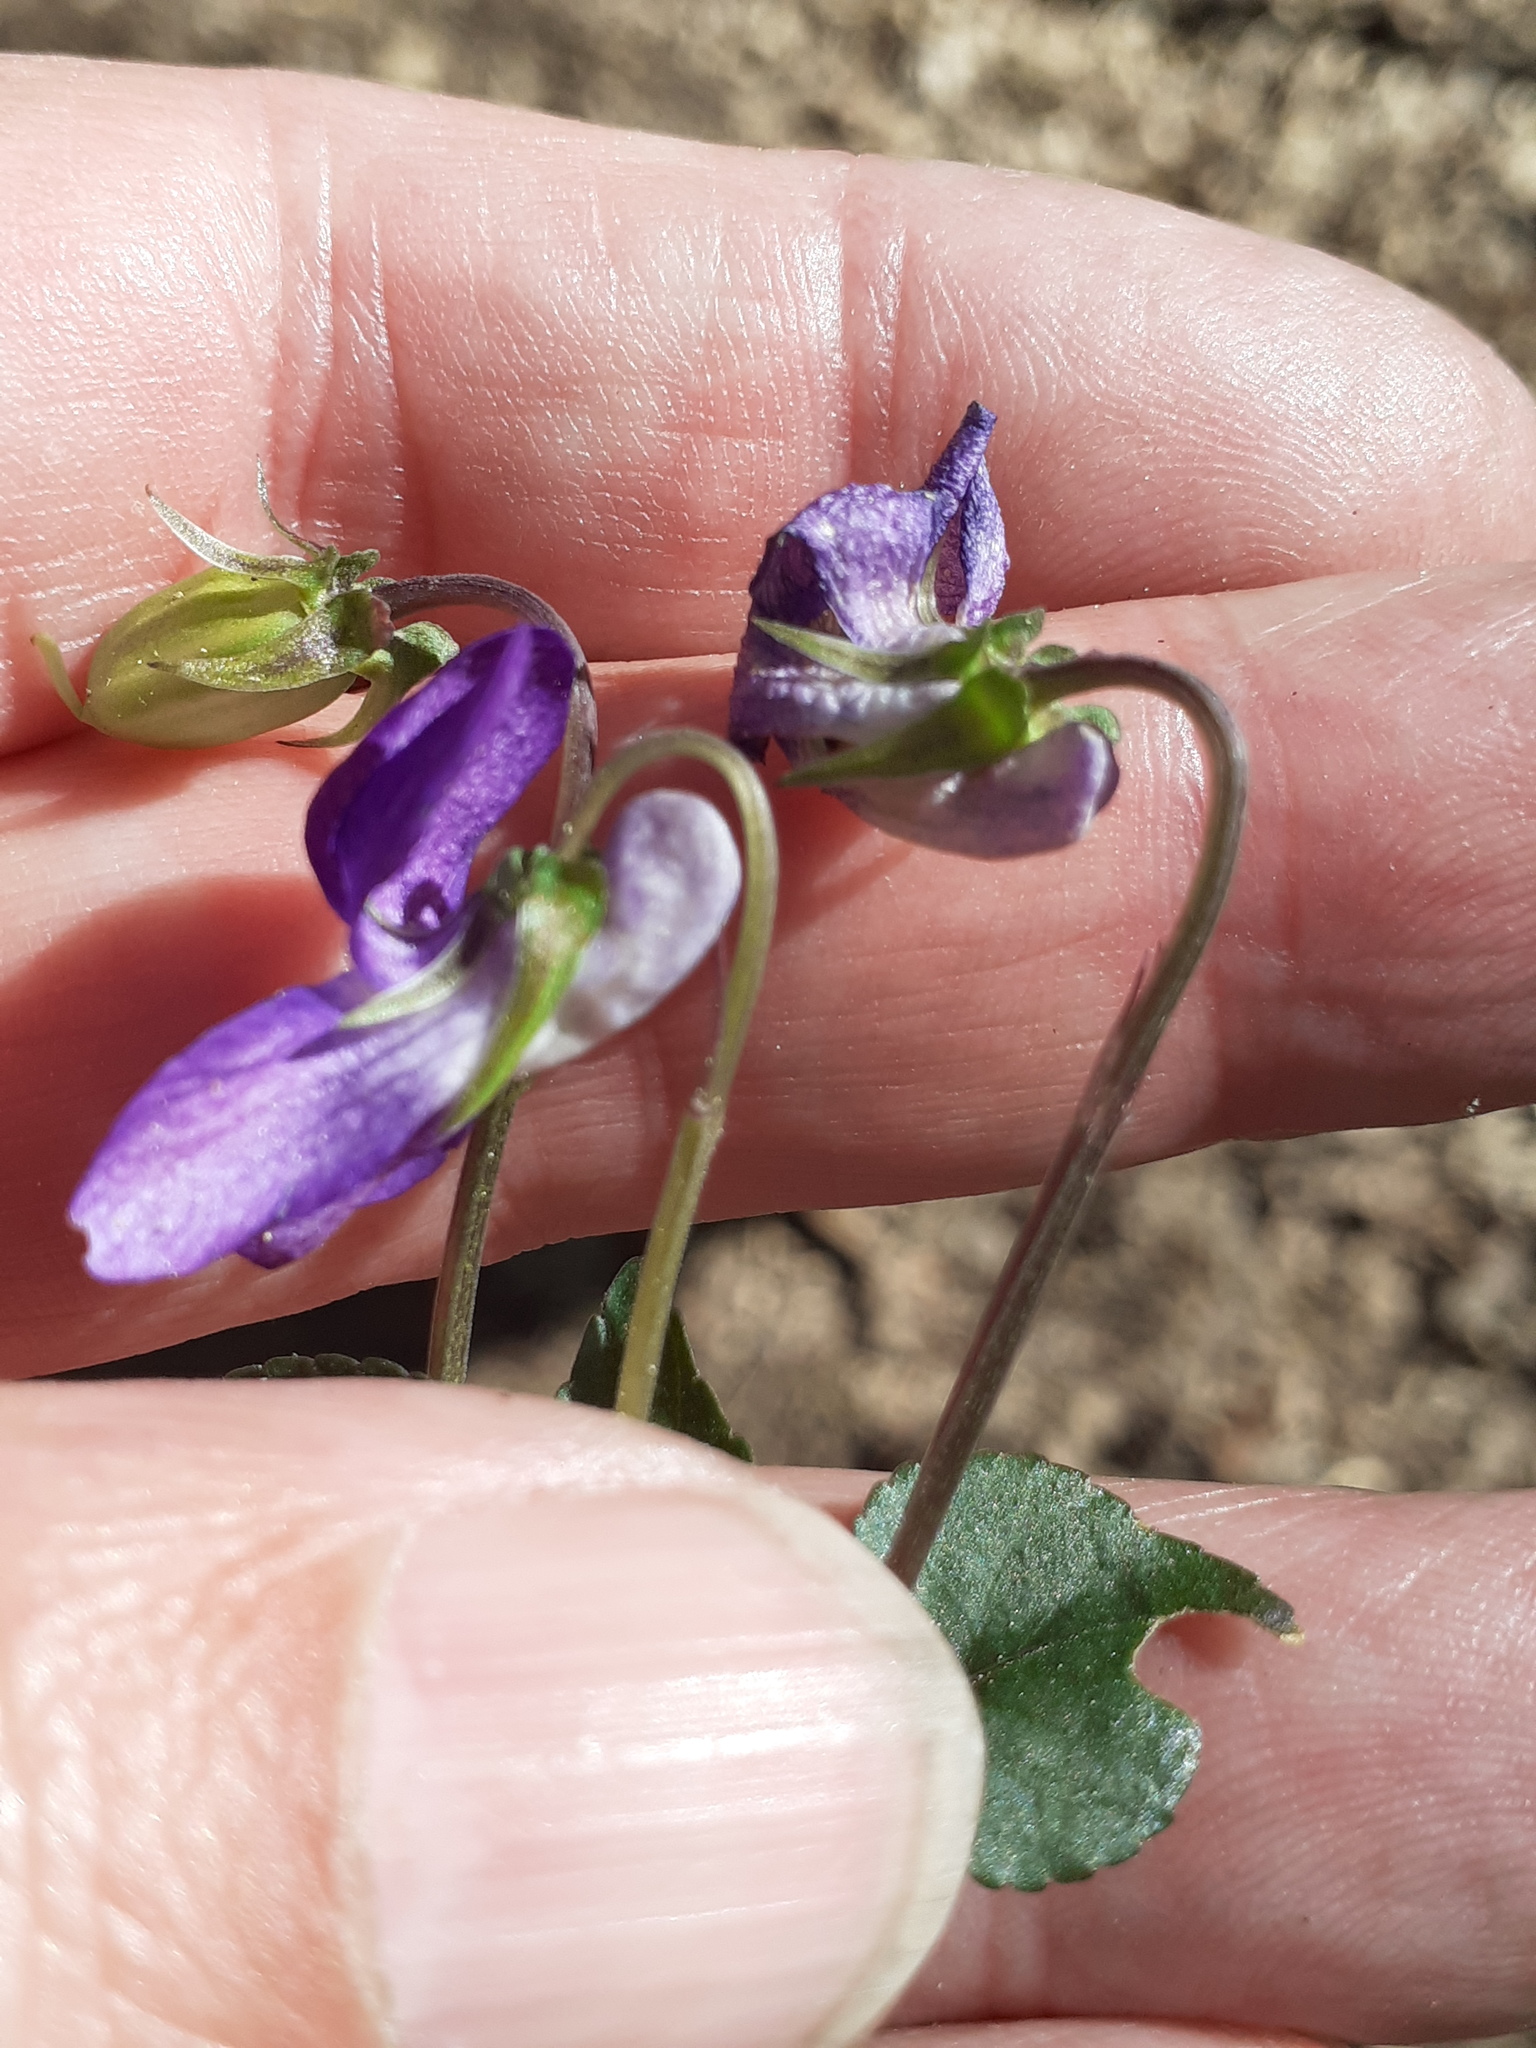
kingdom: Plantae
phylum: Tracheophyta
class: Magnoliopsida
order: Malpighiales
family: Violaceae
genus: Viola
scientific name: Viola bavarica
